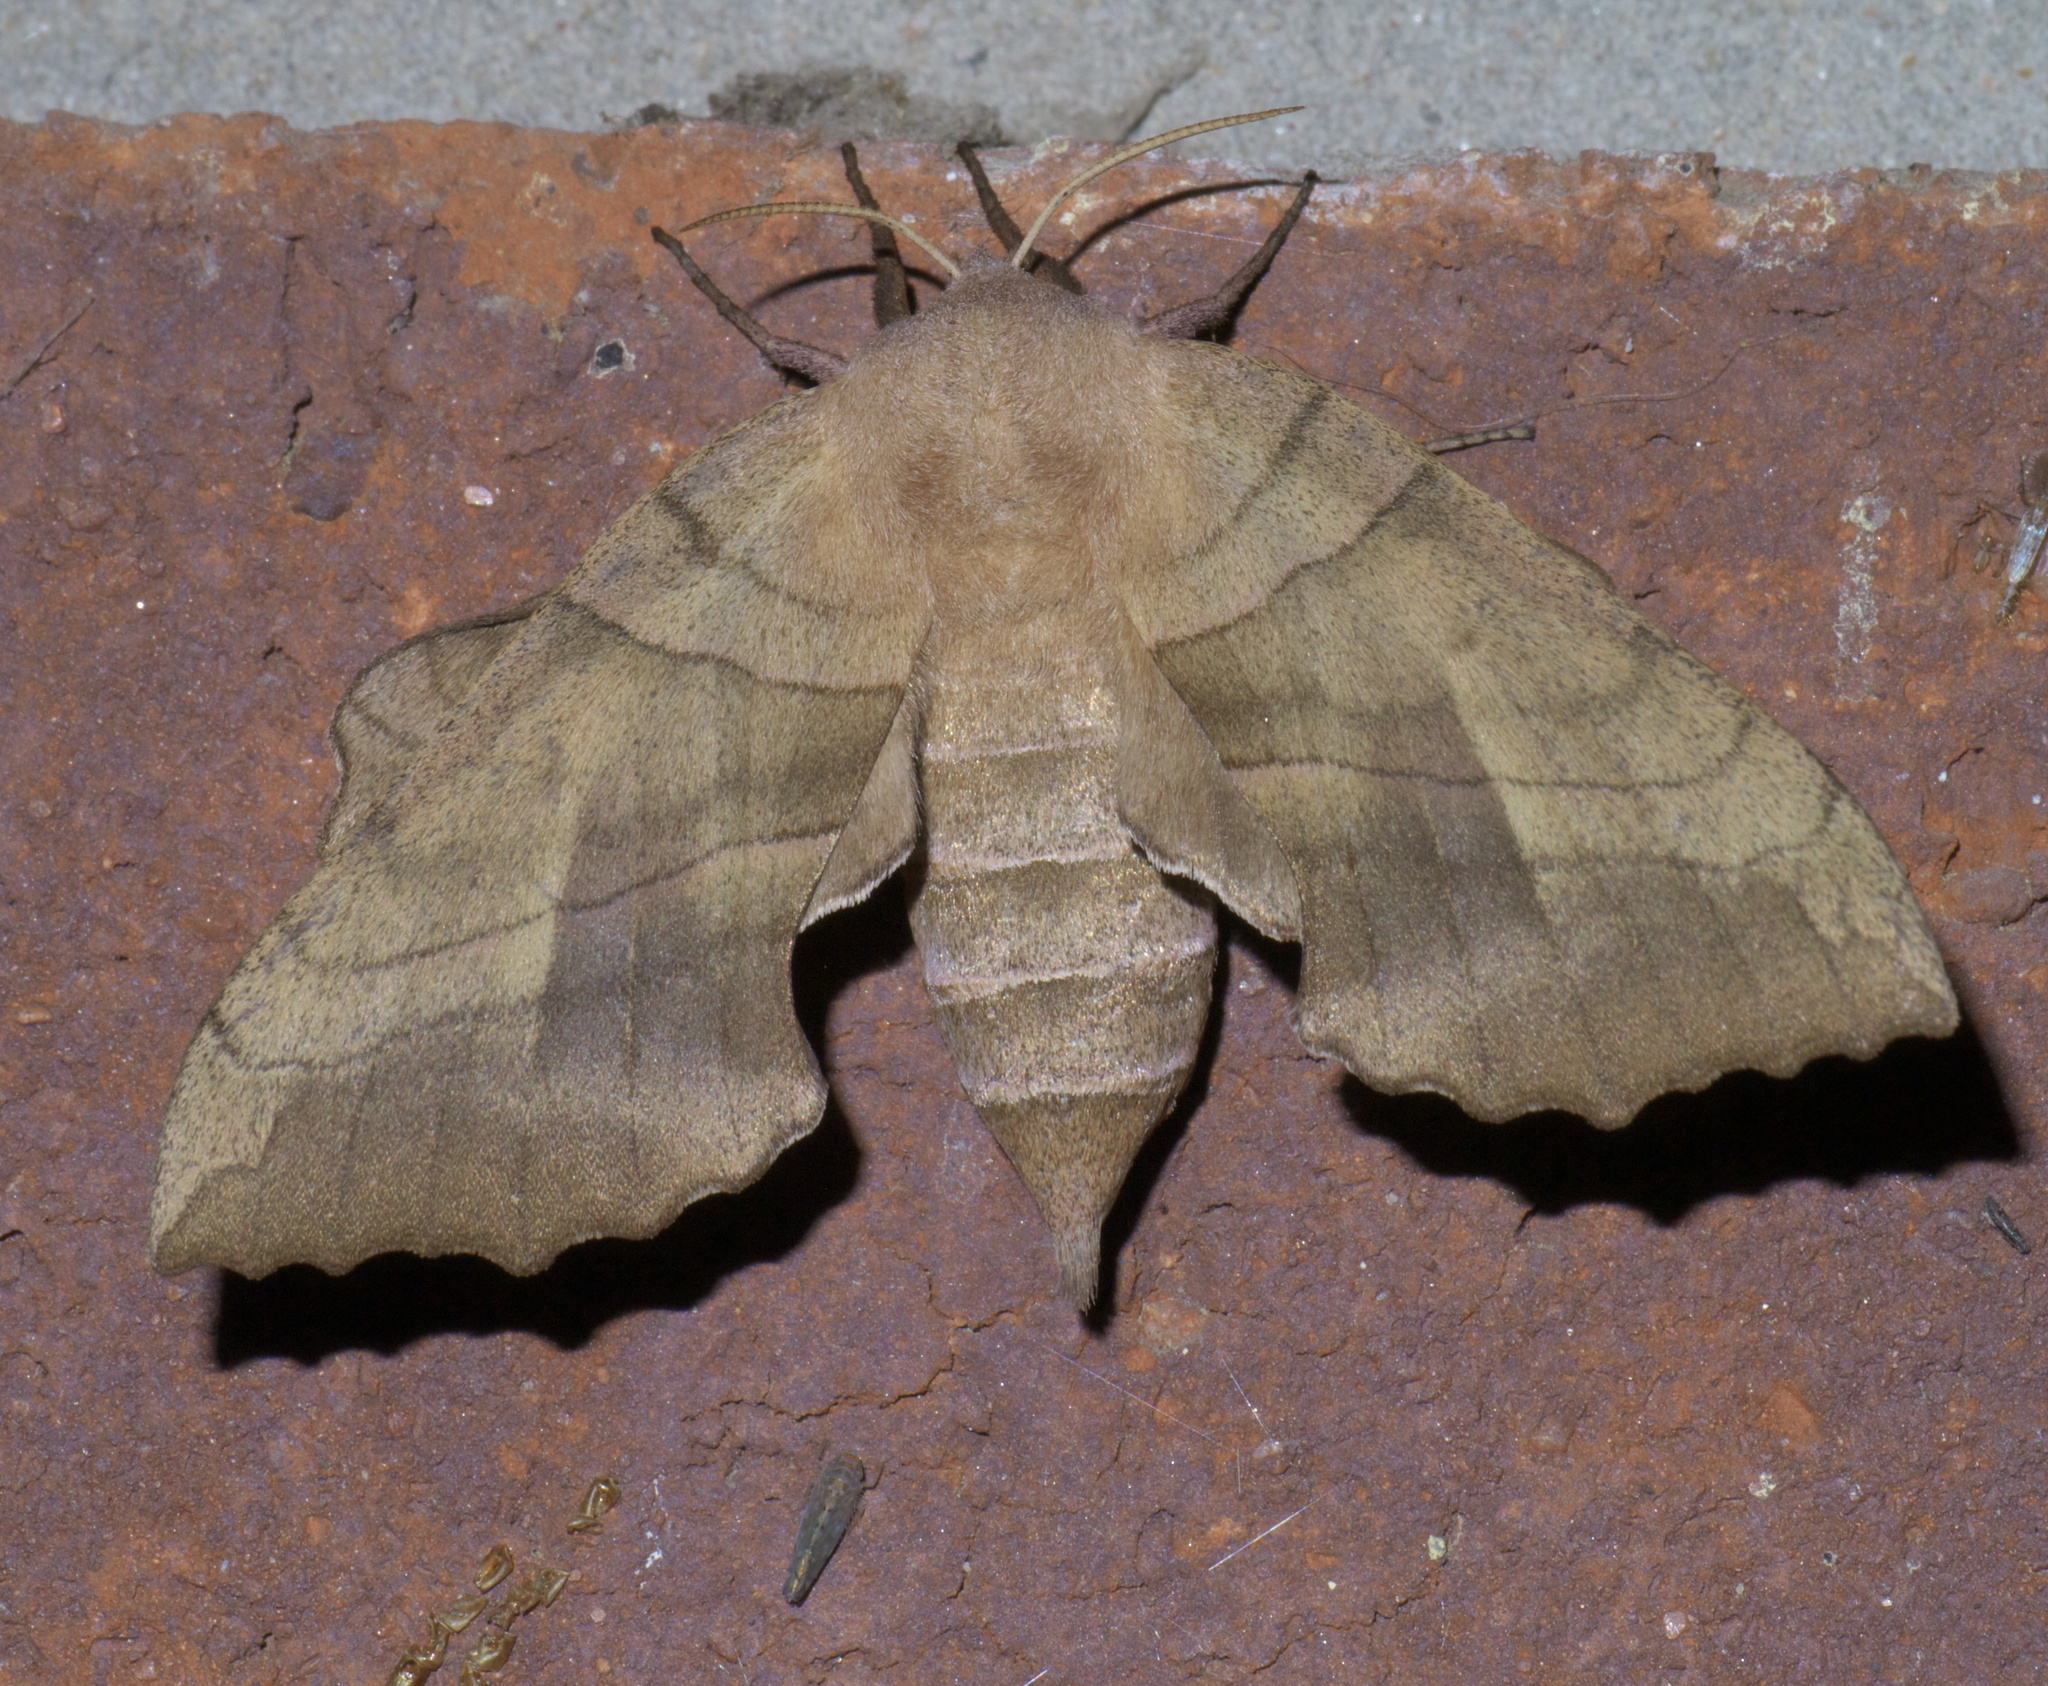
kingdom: Animalia
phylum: Arthropoda
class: Insecta
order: Lepidoptera
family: Sphingidae
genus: Amorpha
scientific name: Amorpha juglandis
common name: Walnut sphinx
